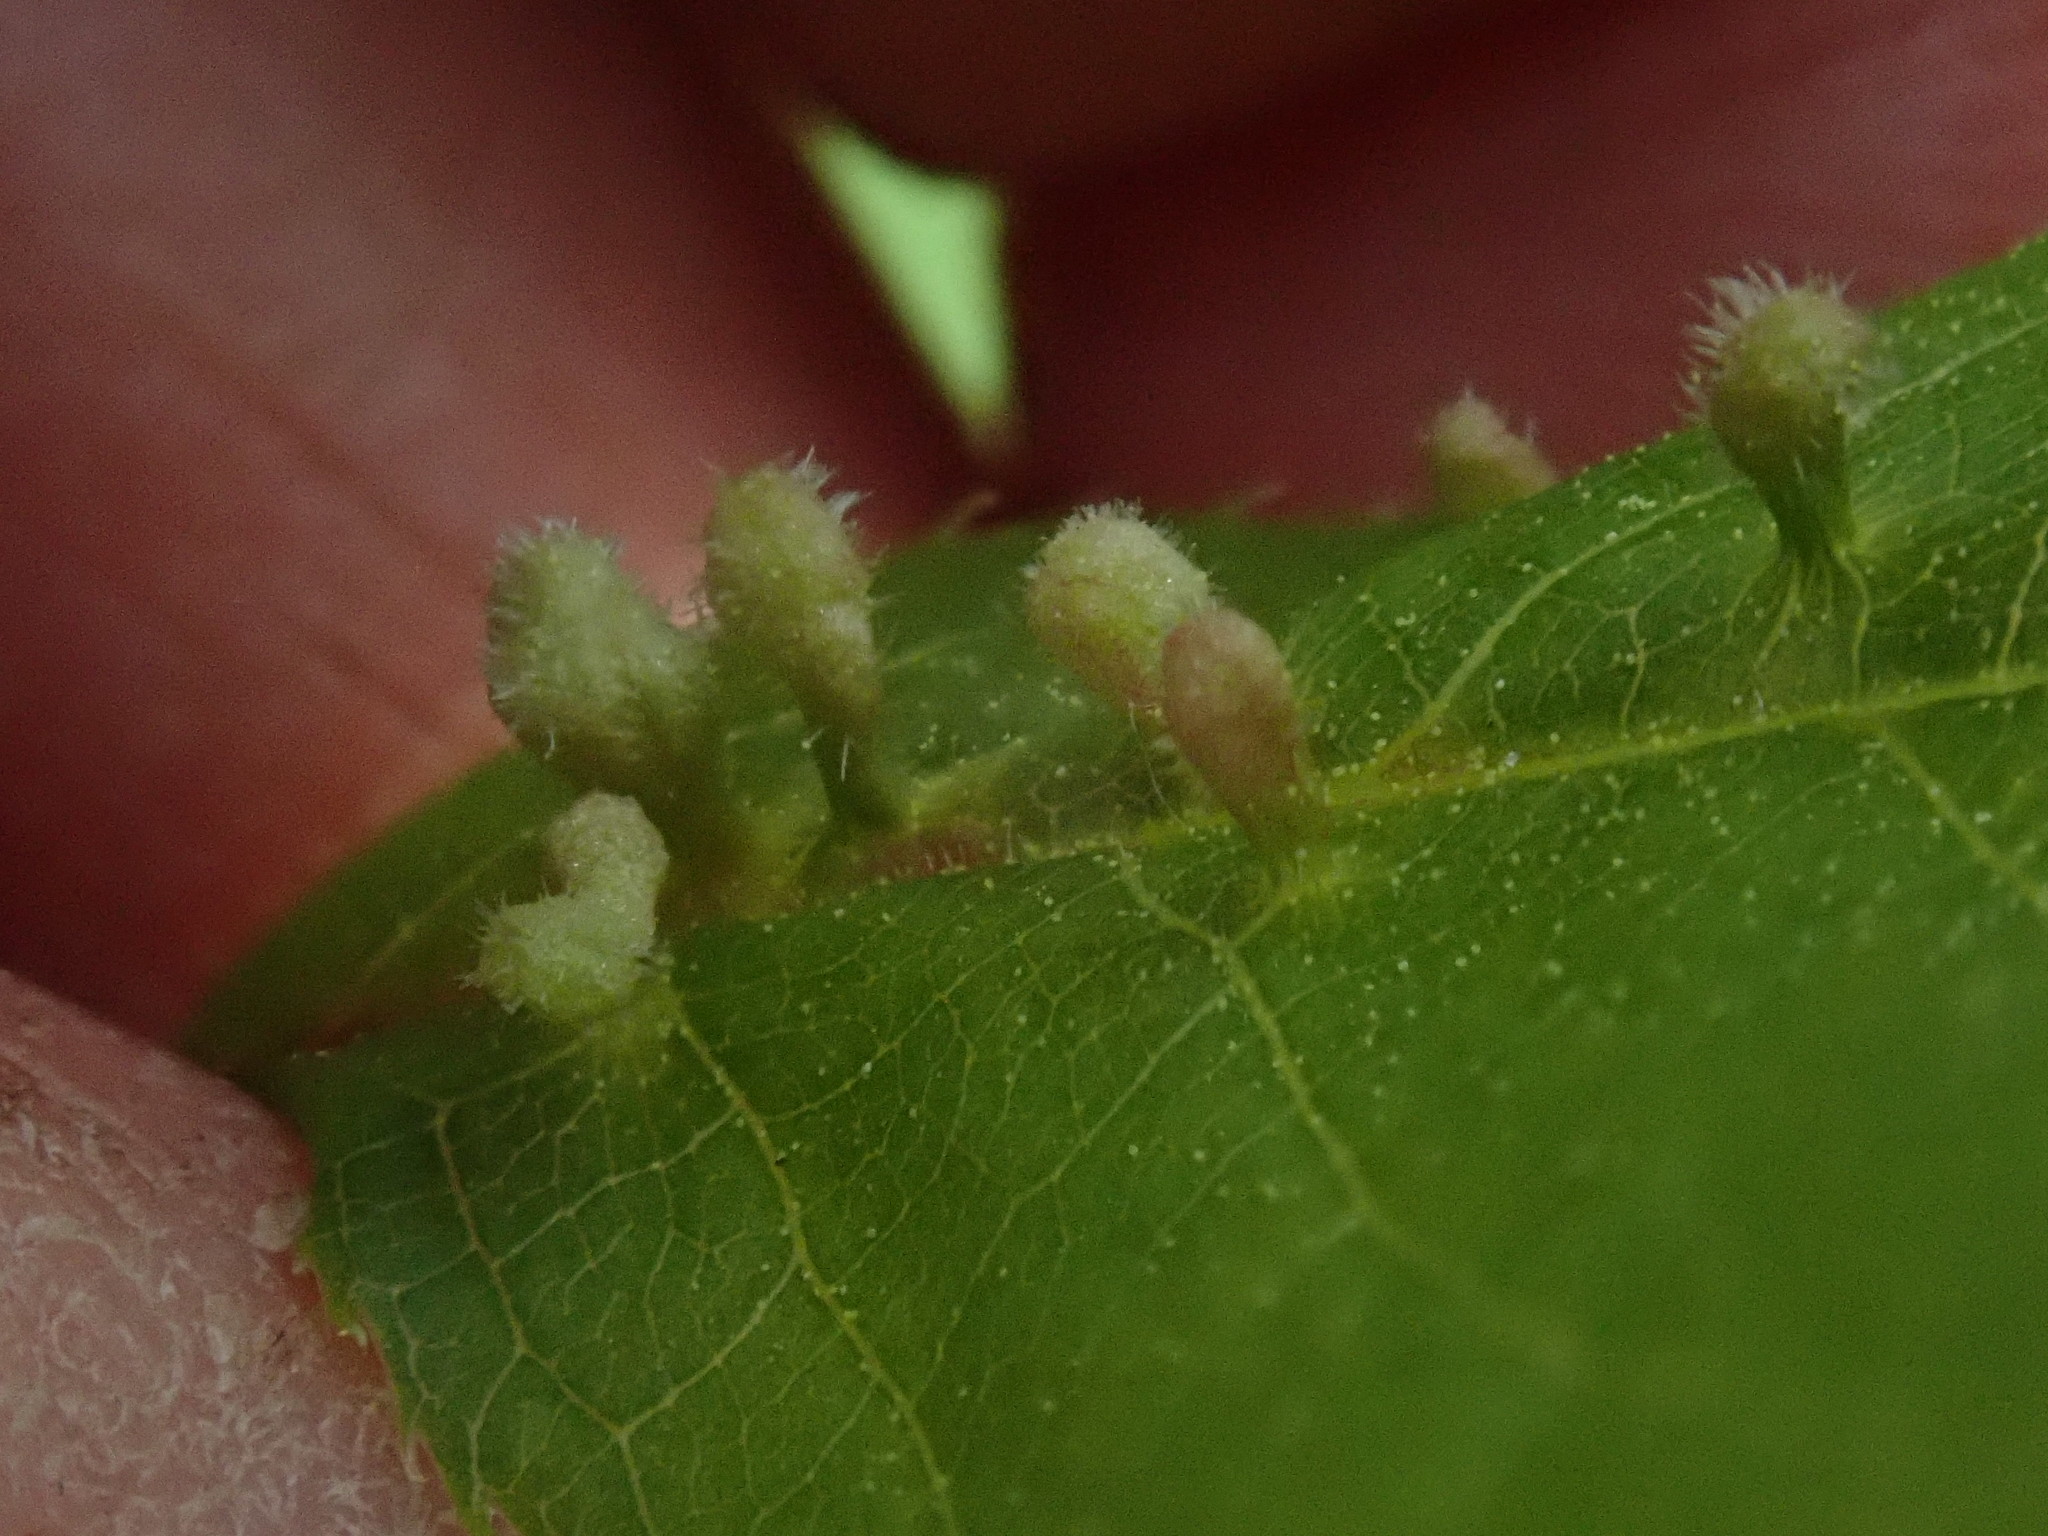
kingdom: Animalia
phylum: Arthropoda
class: Arachnida
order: Trombidiformes
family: Eriophyidae
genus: Eriophyes
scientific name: Eriophyes emarginatae
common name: Plum leaf gall mite
